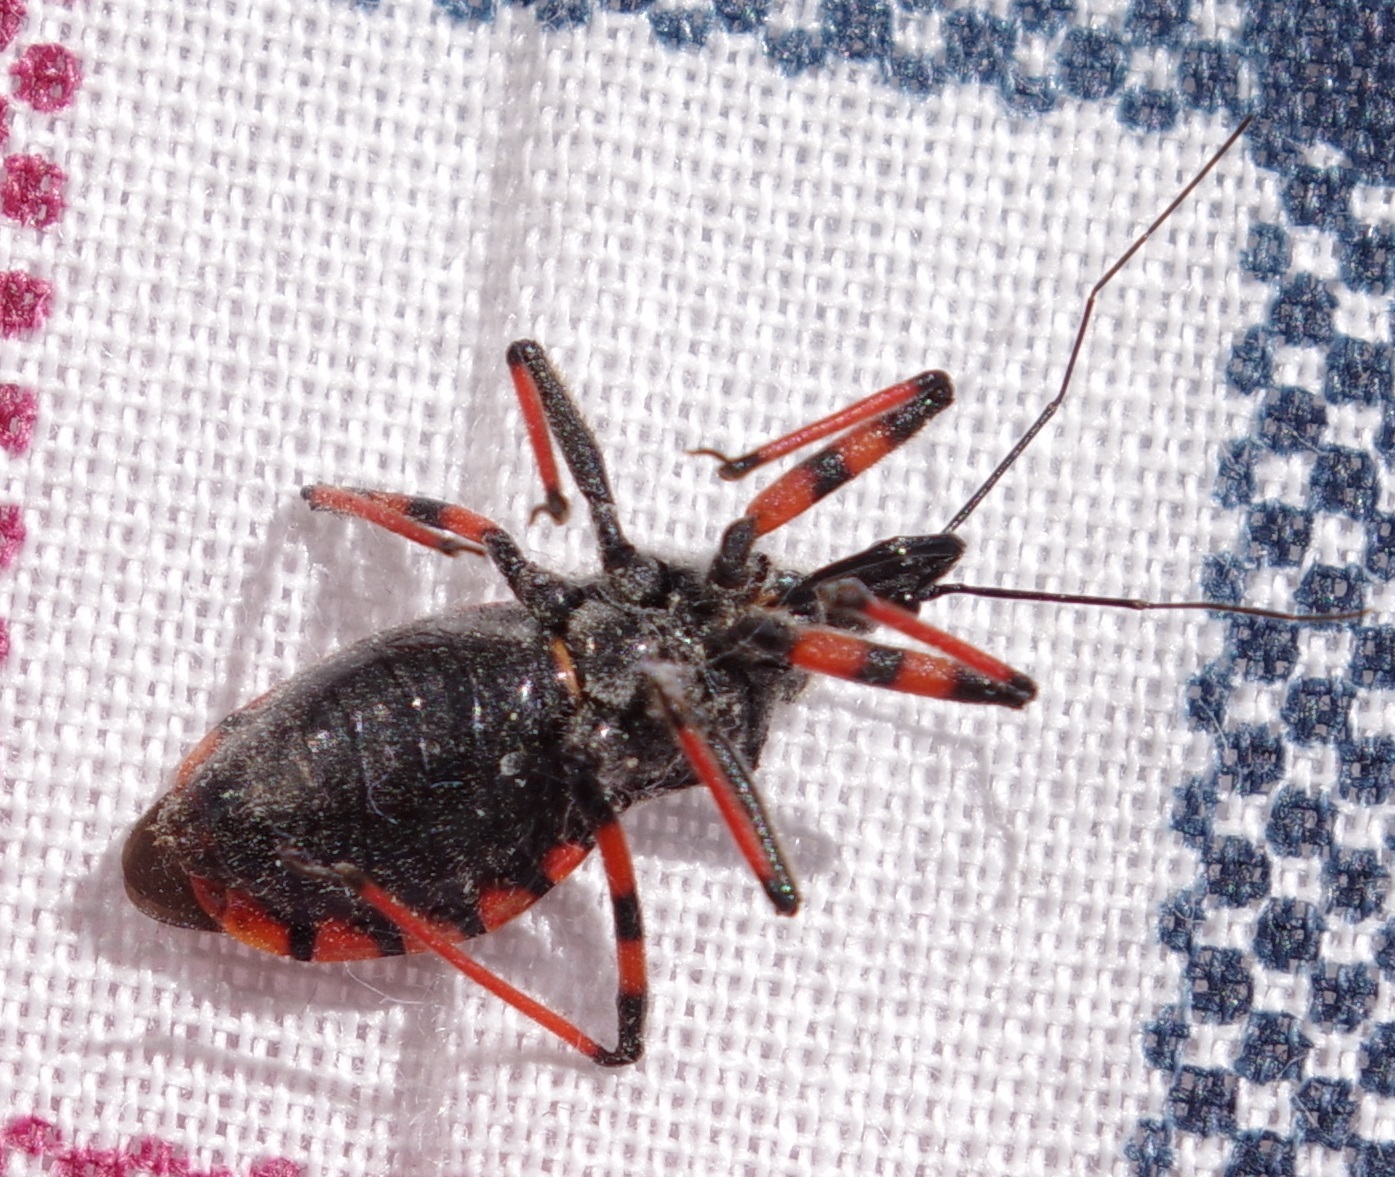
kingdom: Animalia
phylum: Arthropoda
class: Insecta
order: Hemiptera
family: Reduviidae
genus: Rhynocoris
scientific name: Rhynocoris annulatus
